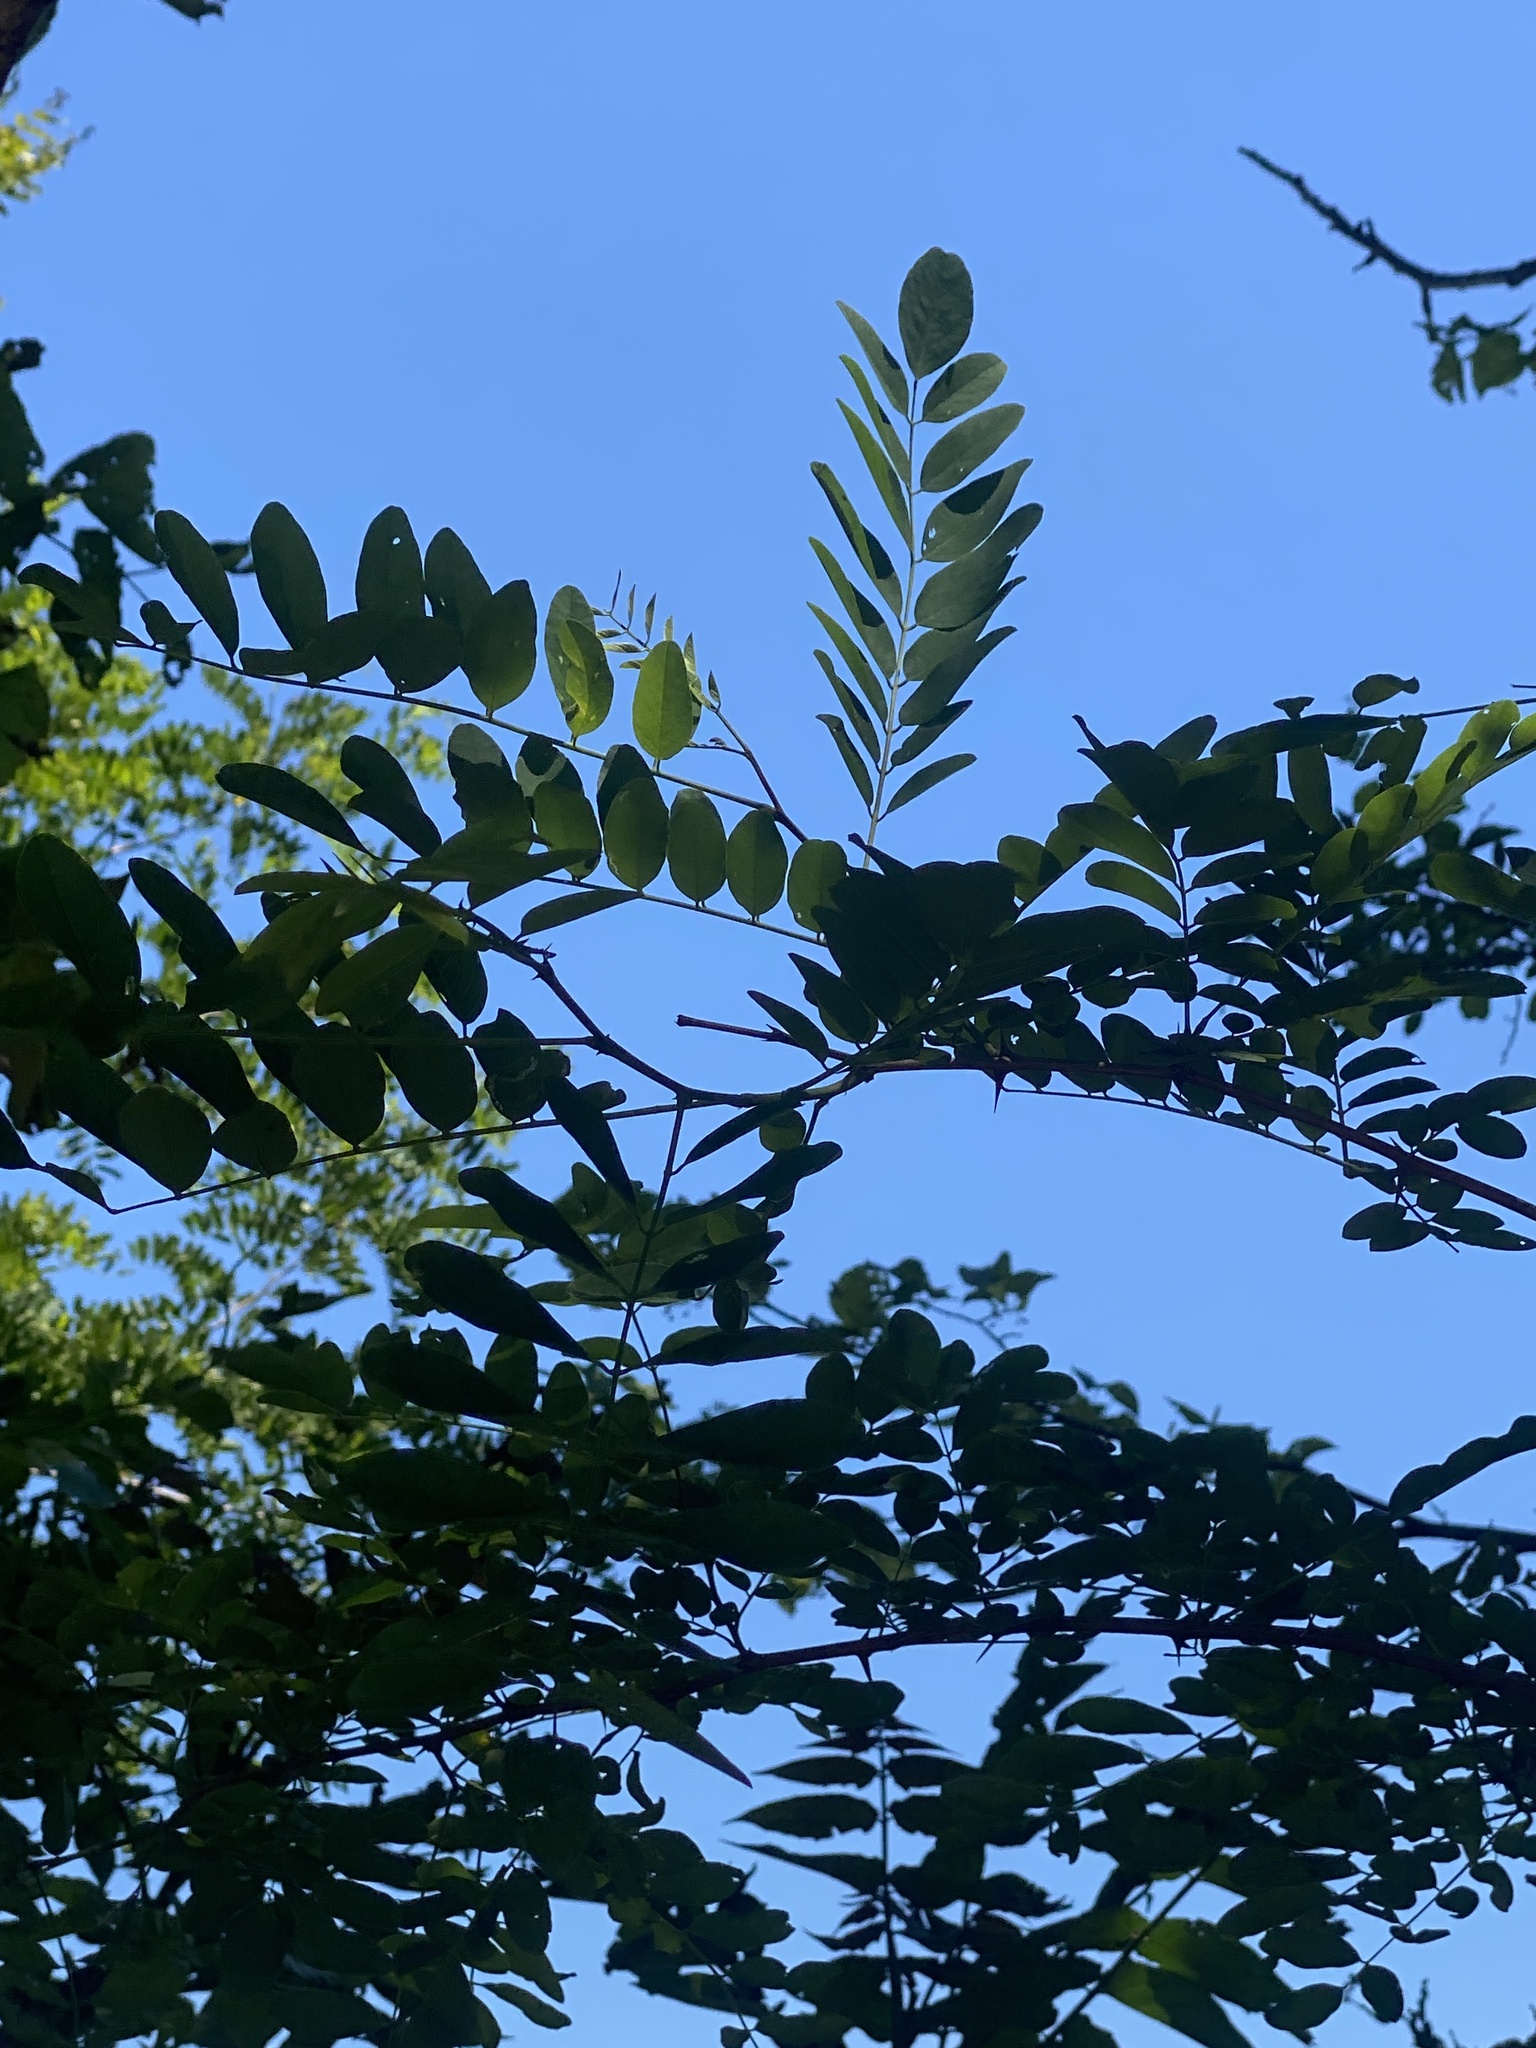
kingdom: Plantae
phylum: Tracheophyta
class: Magnoliopsida
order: Fabales
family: Fabaceae
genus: Robinia
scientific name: Robinia pseudoacacia
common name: Black locust
